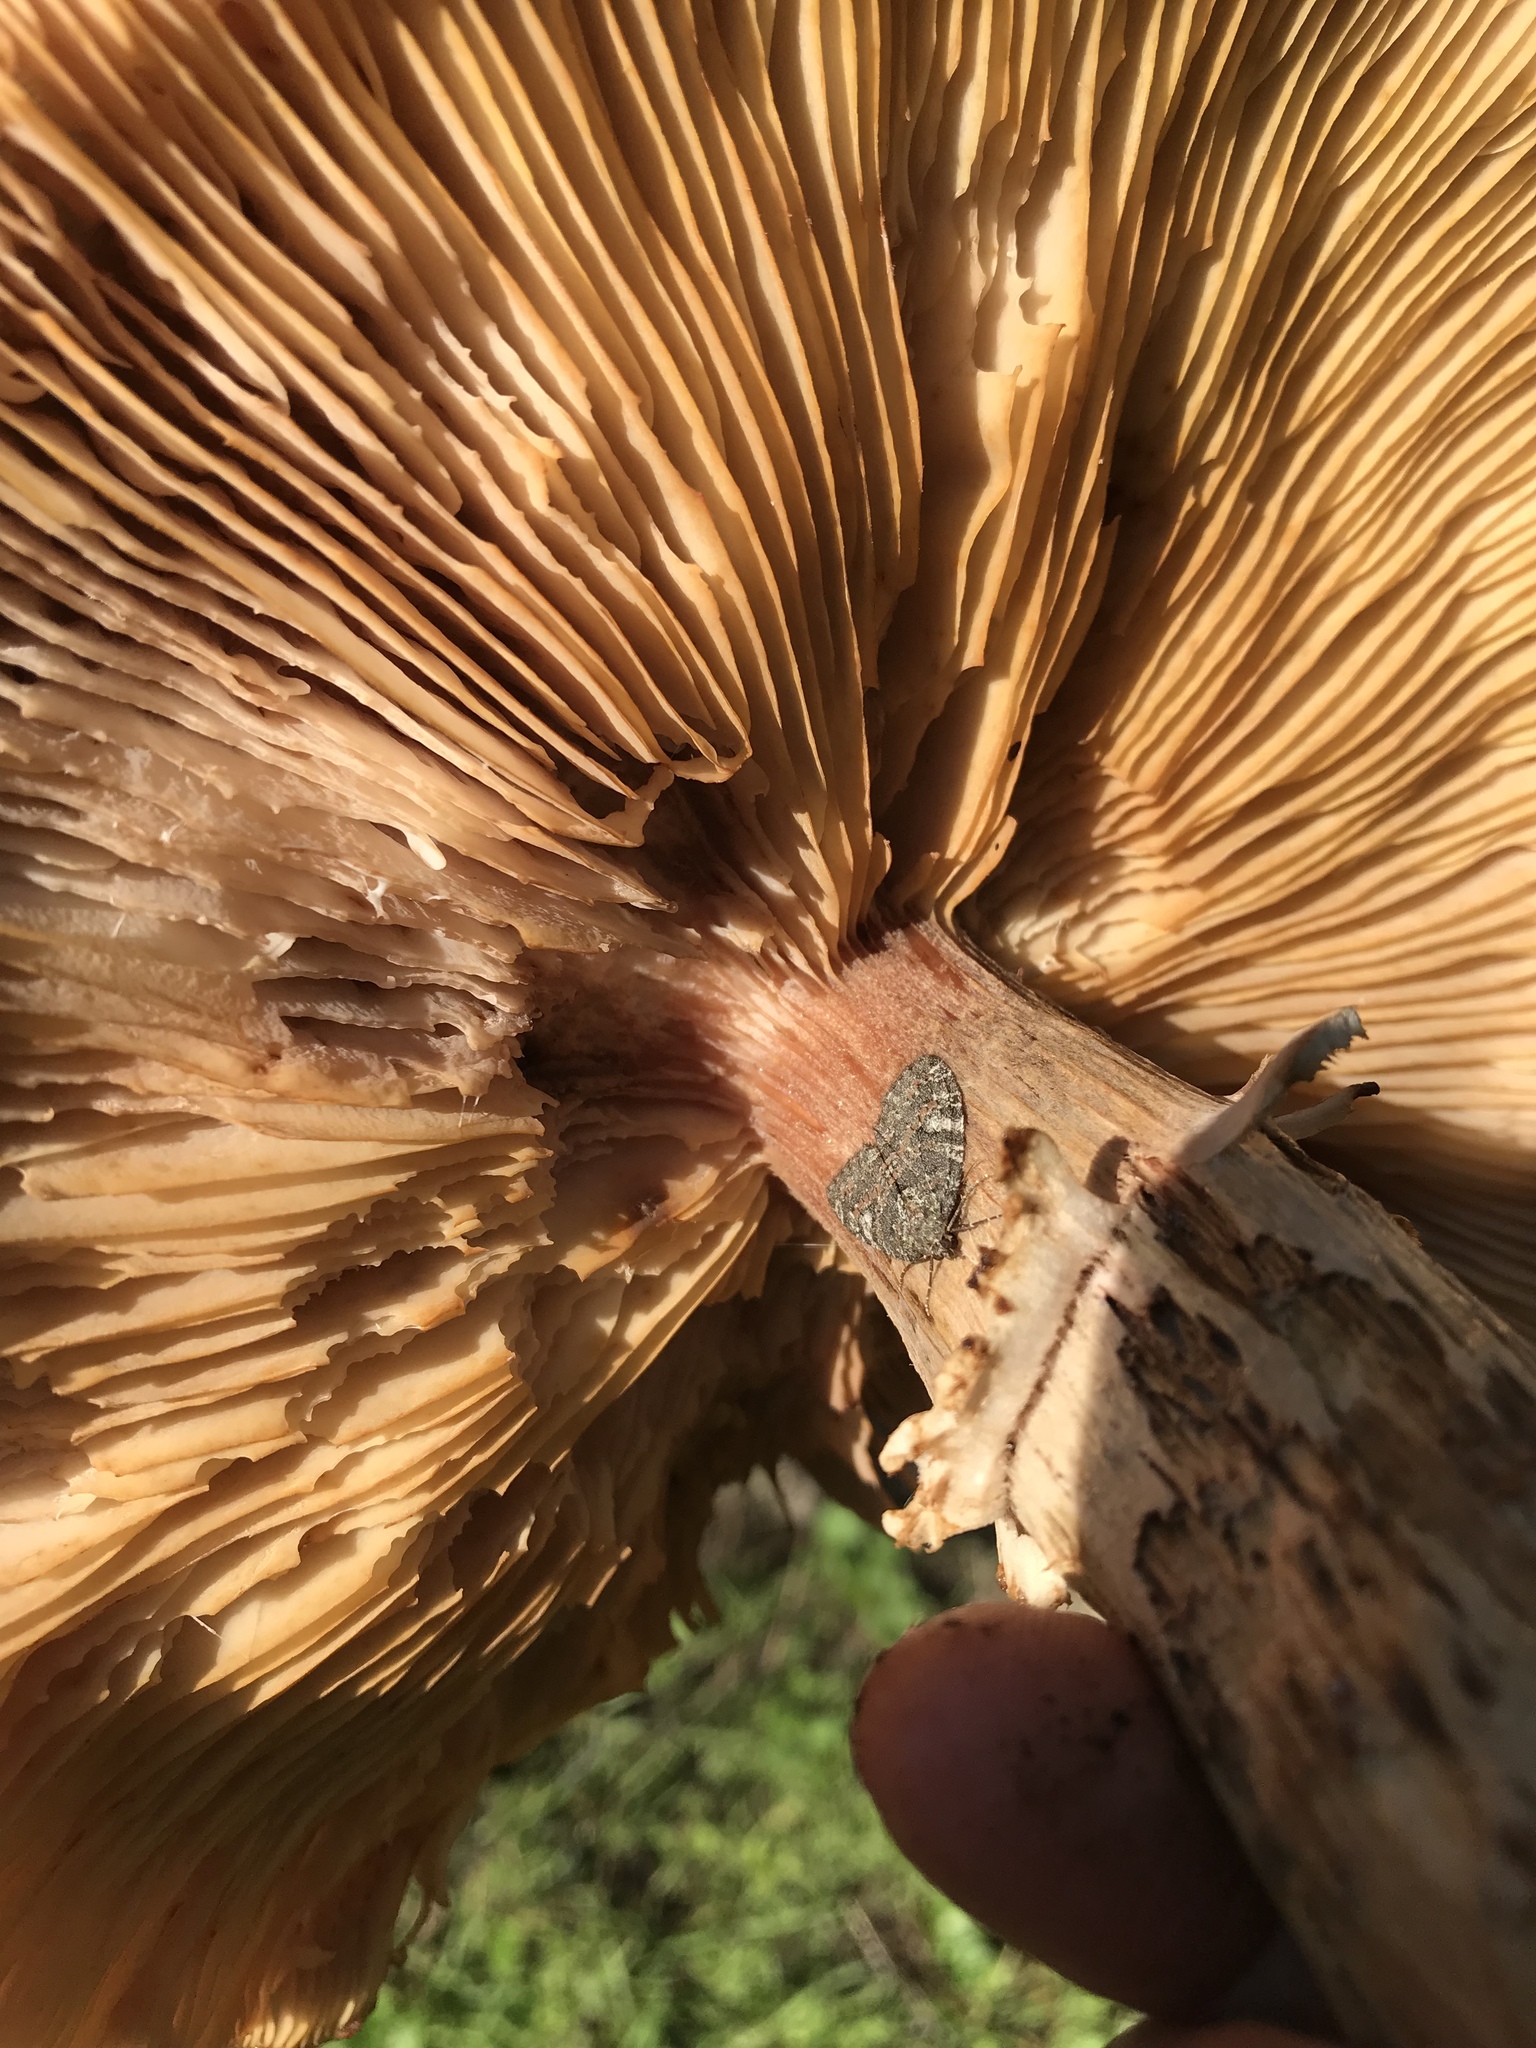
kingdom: Animalia
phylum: Arthropoda
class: Insecta
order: Lepidoptera
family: Geometridae
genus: Hydriomena
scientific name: Hydriomena nubilofasciata
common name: Oak winter highflier moth
